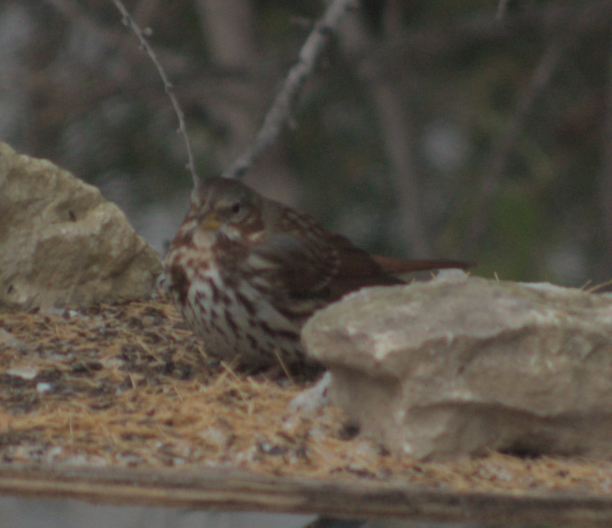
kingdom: Animalia
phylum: Chordata
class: Aves
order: Passeriformes
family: Passerellidae
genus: Passerella
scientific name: Passerella iliaca
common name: Fox sparrow
